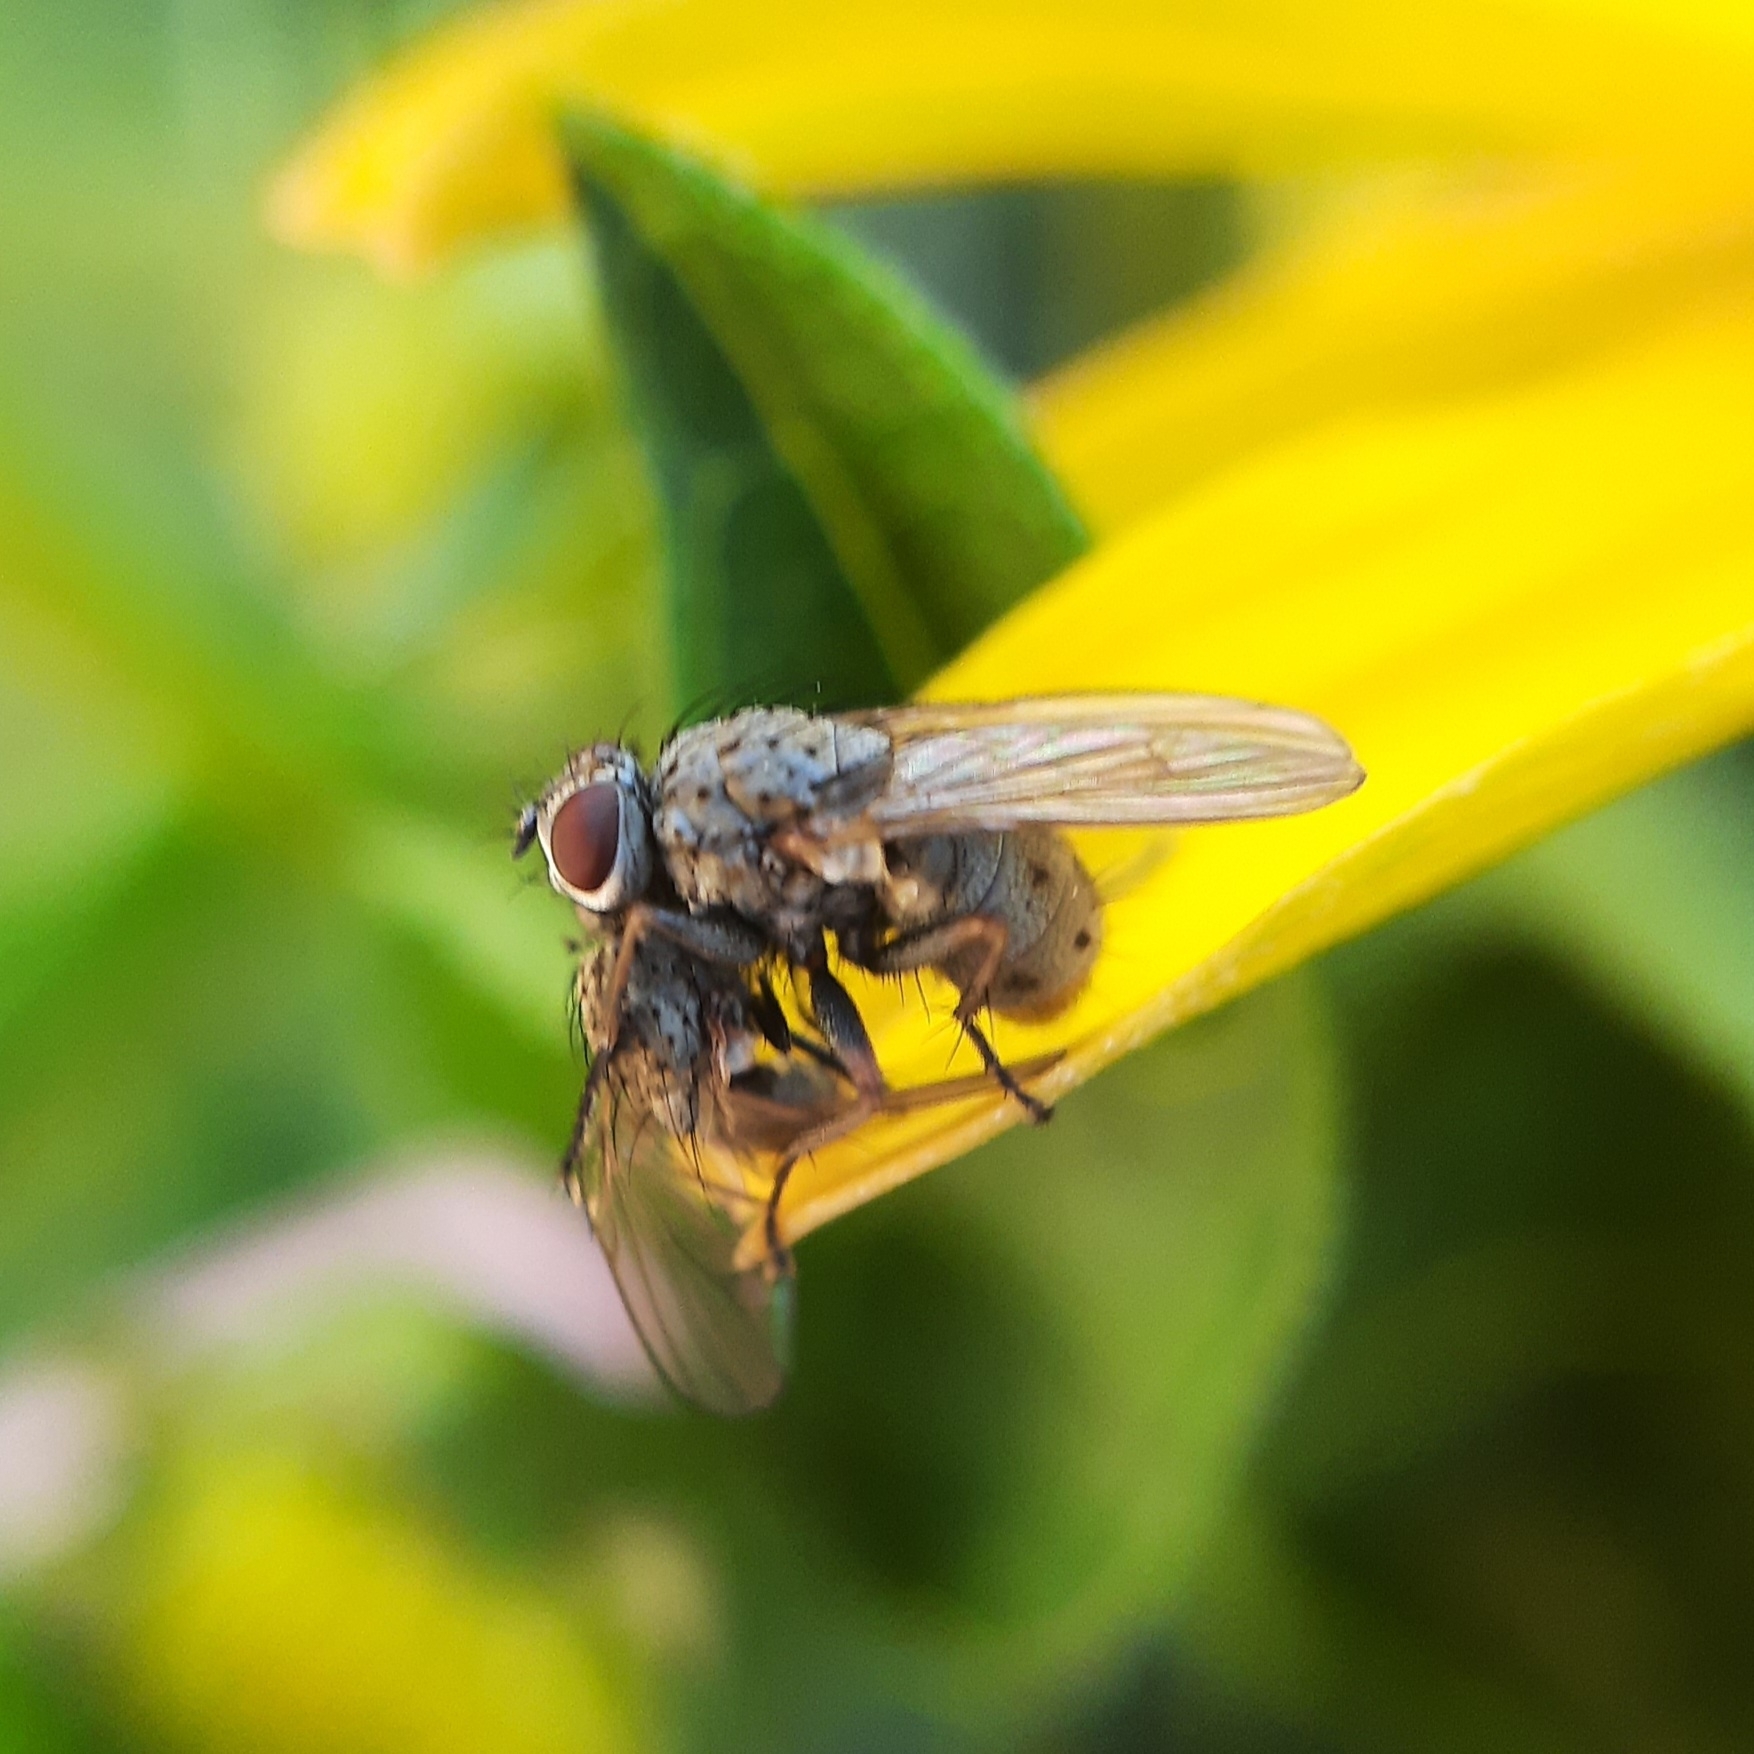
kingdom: Animalia
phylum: Arthropoda
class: Insecta
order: Diptera
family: Muscidae
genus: Coenosia
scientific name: Coenosia tigrina
